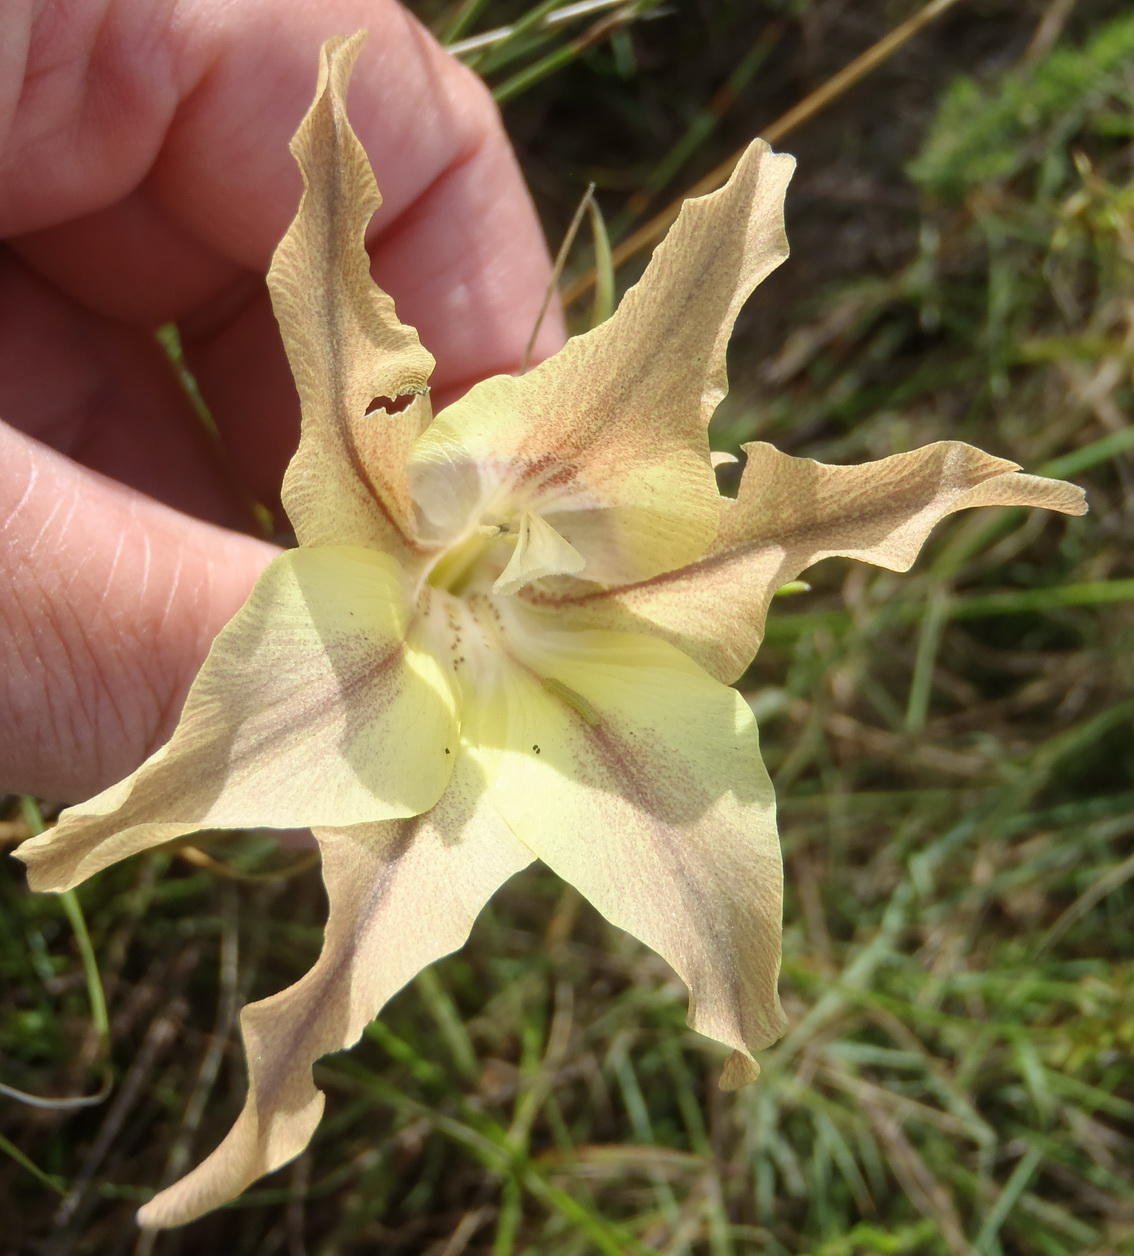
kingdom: Plantae
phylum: Tracheophyta
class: Liliopsida
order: Asparagales
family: Iridaceae
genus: Gladiolus
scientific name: Gladiolus liliaceus
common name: Large brown afrikaner
